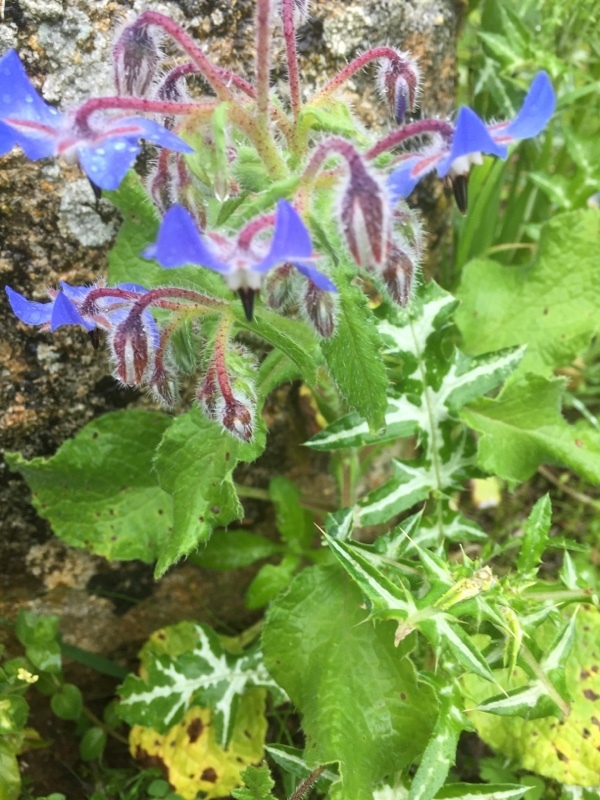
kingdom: Plantae
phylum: Tracheophyta
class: Magnoliopsida
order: Boraginales
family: Boraginaceae
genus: Borago
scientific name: Borago officinalis
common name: Borage
